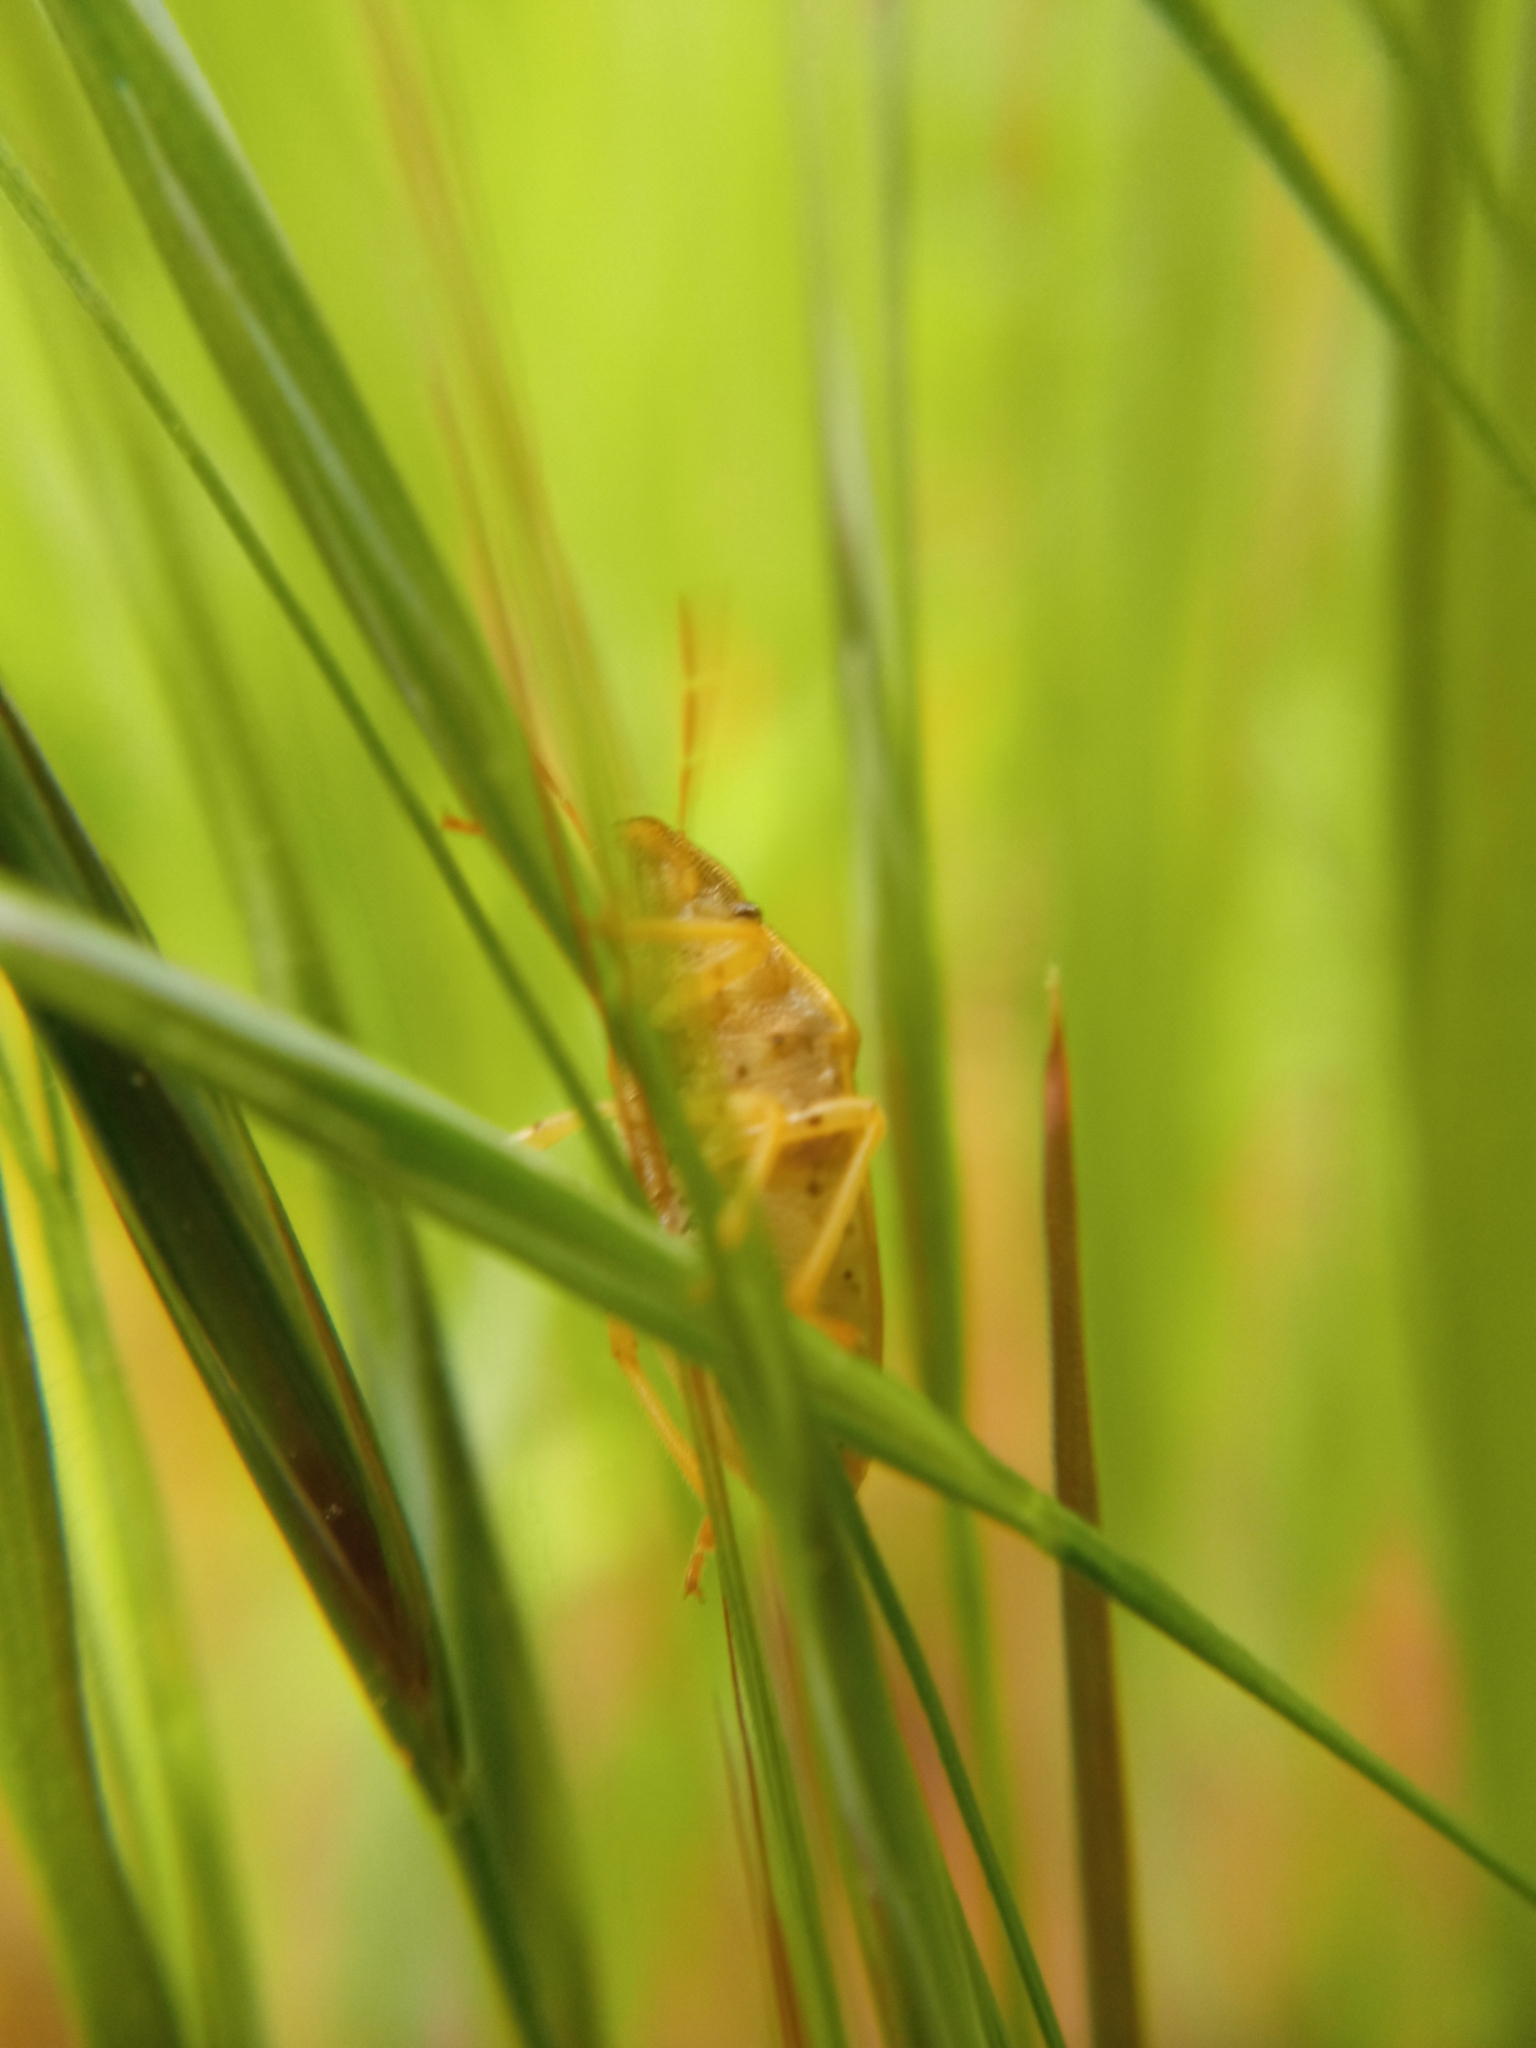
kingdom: Animalia
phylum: Arthropoda
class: Insecta
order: Hemiptera
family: Pentatomidae
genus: Aelia
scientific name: Aelia acuminata
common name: Bishop's mitre
